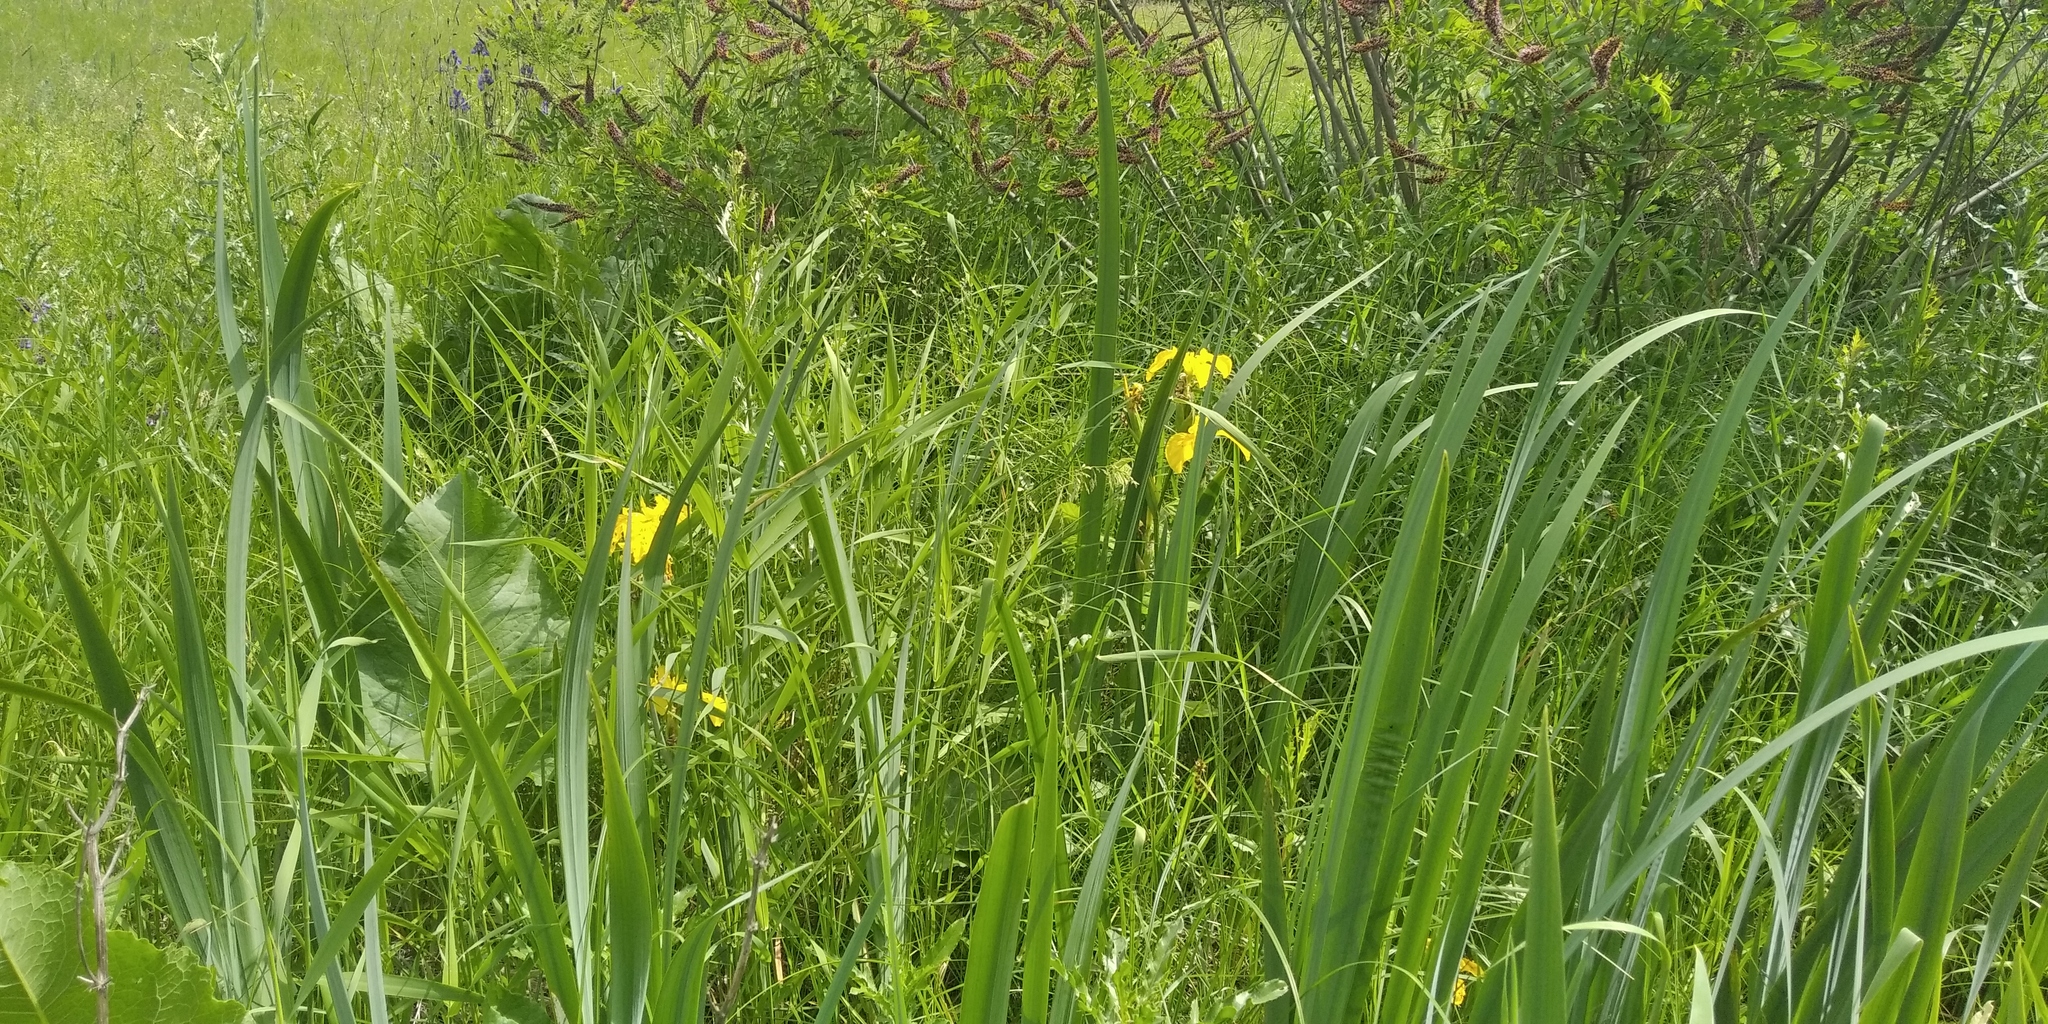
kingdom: Plantae
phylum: Tracheophyta
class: Liliopsida
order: Asparagales
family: Iridaceae
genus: Iris
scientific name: Iris pseudacorus
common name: Yellow flag
